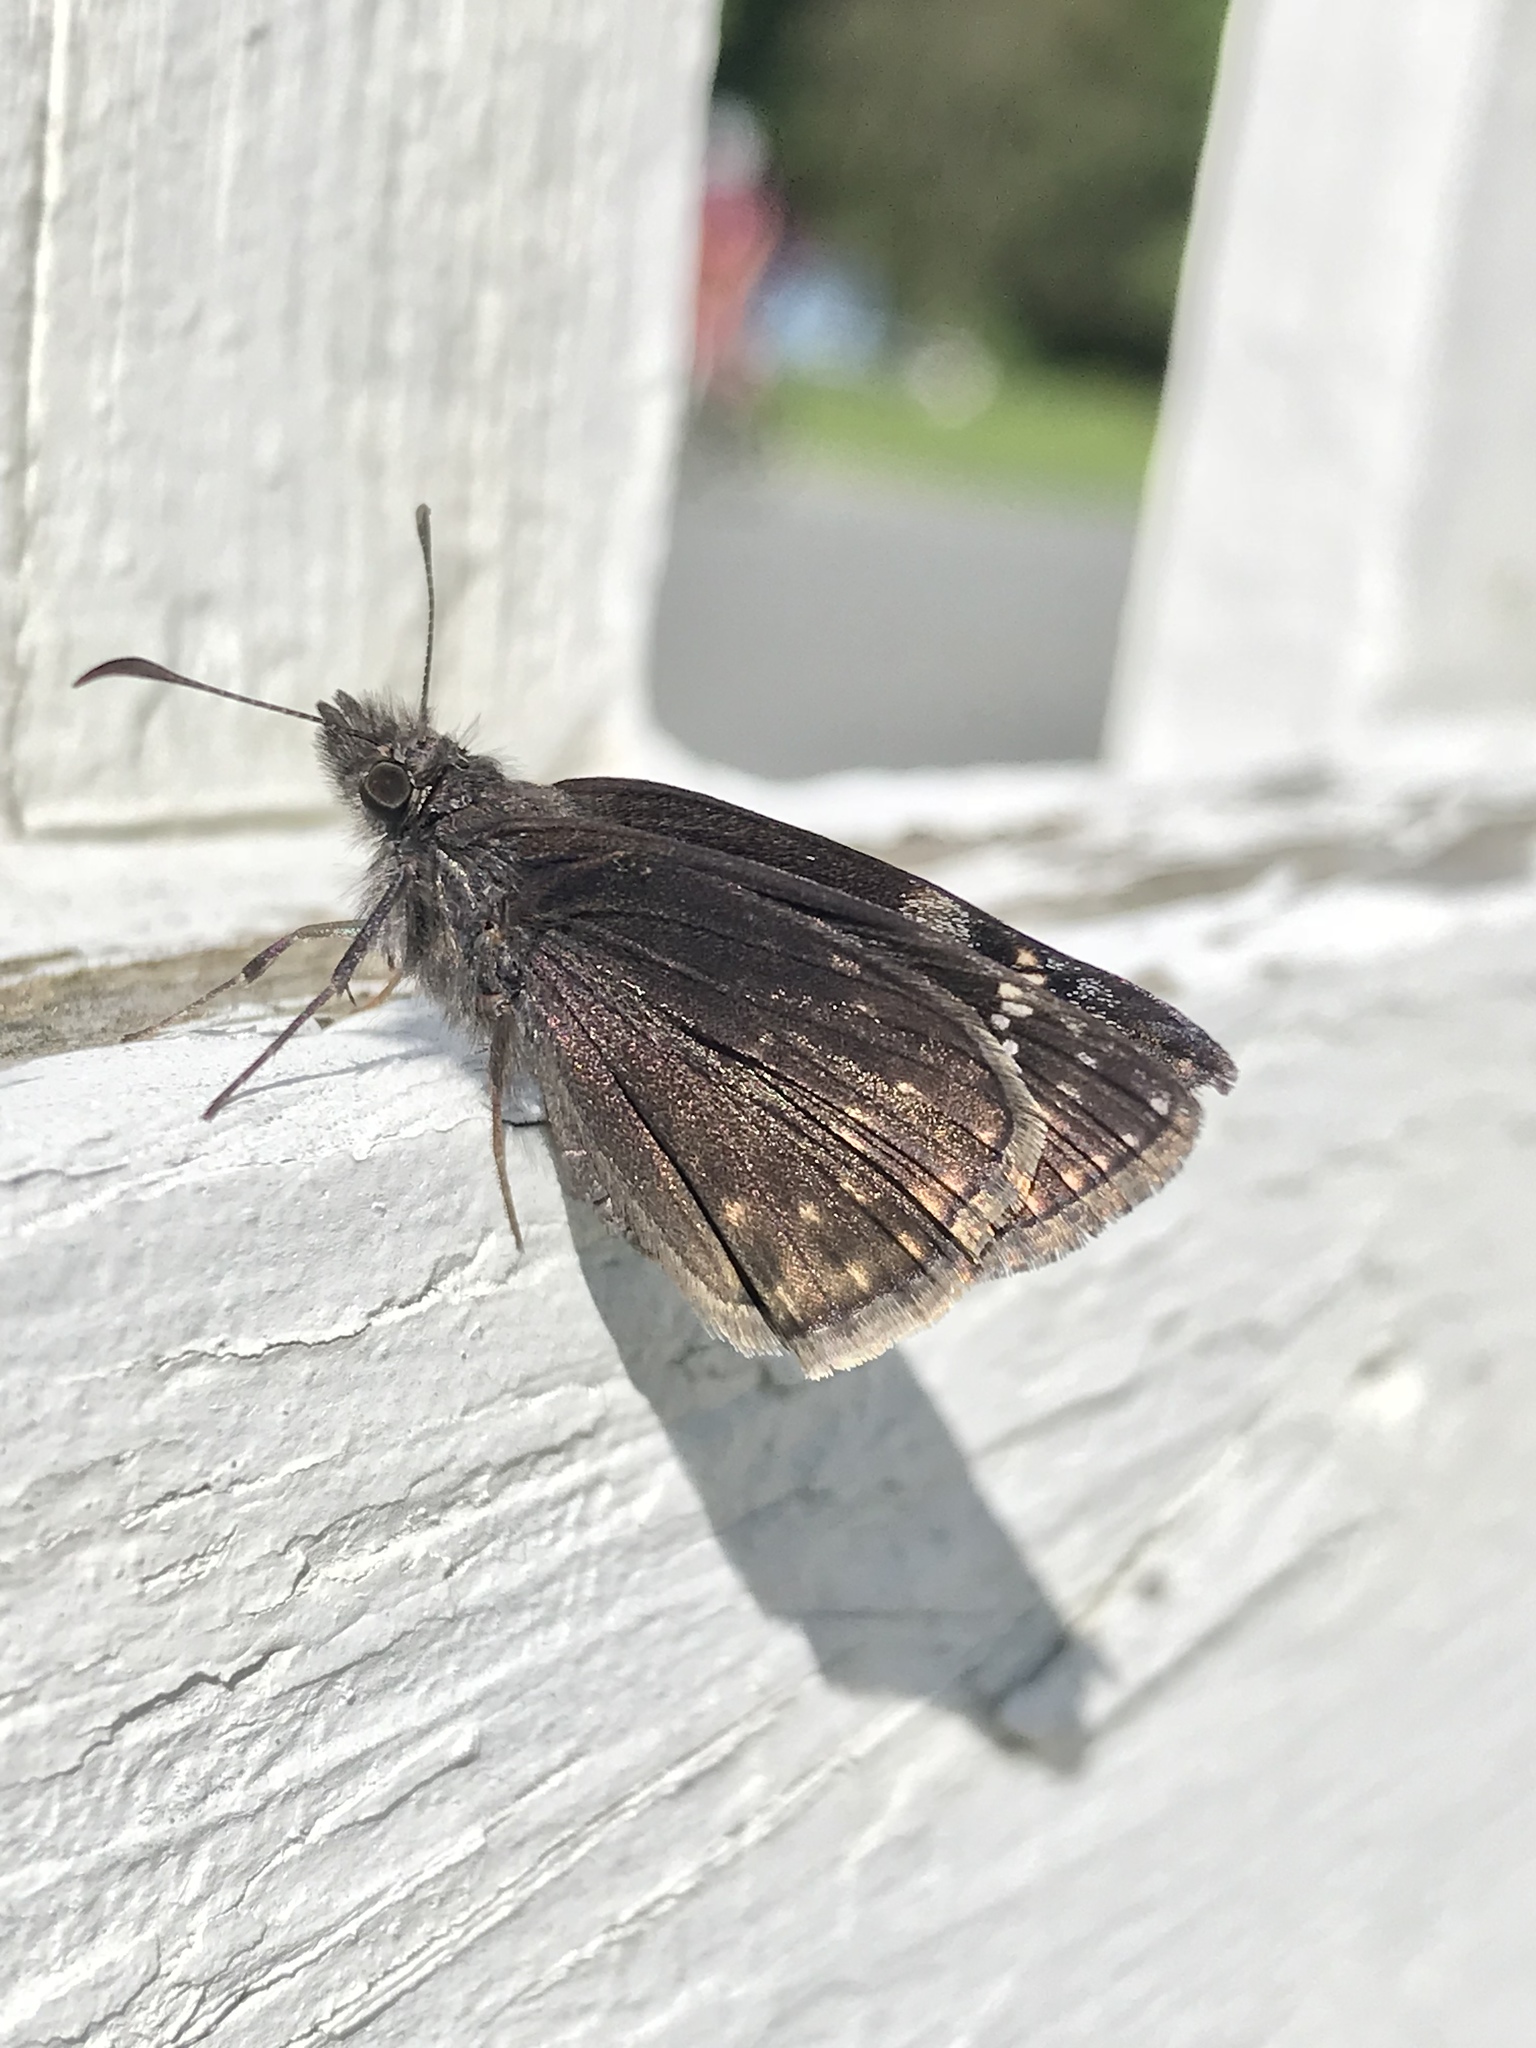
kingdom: Animalia
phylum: Arthropoda
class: Insecta
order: Lepidoptera
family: Hesperiidae
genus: Erynnis
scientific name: Erynnis baptisiae
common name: Wild indigo duskywing
